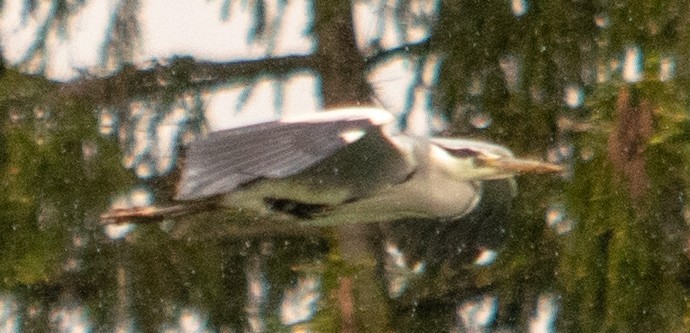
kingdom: Animalia
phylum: Chordata
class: Aves
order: Pelecaniformes
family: Ardeidae
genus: Ardea
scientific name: Ardea cinerea
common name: Grey heron
